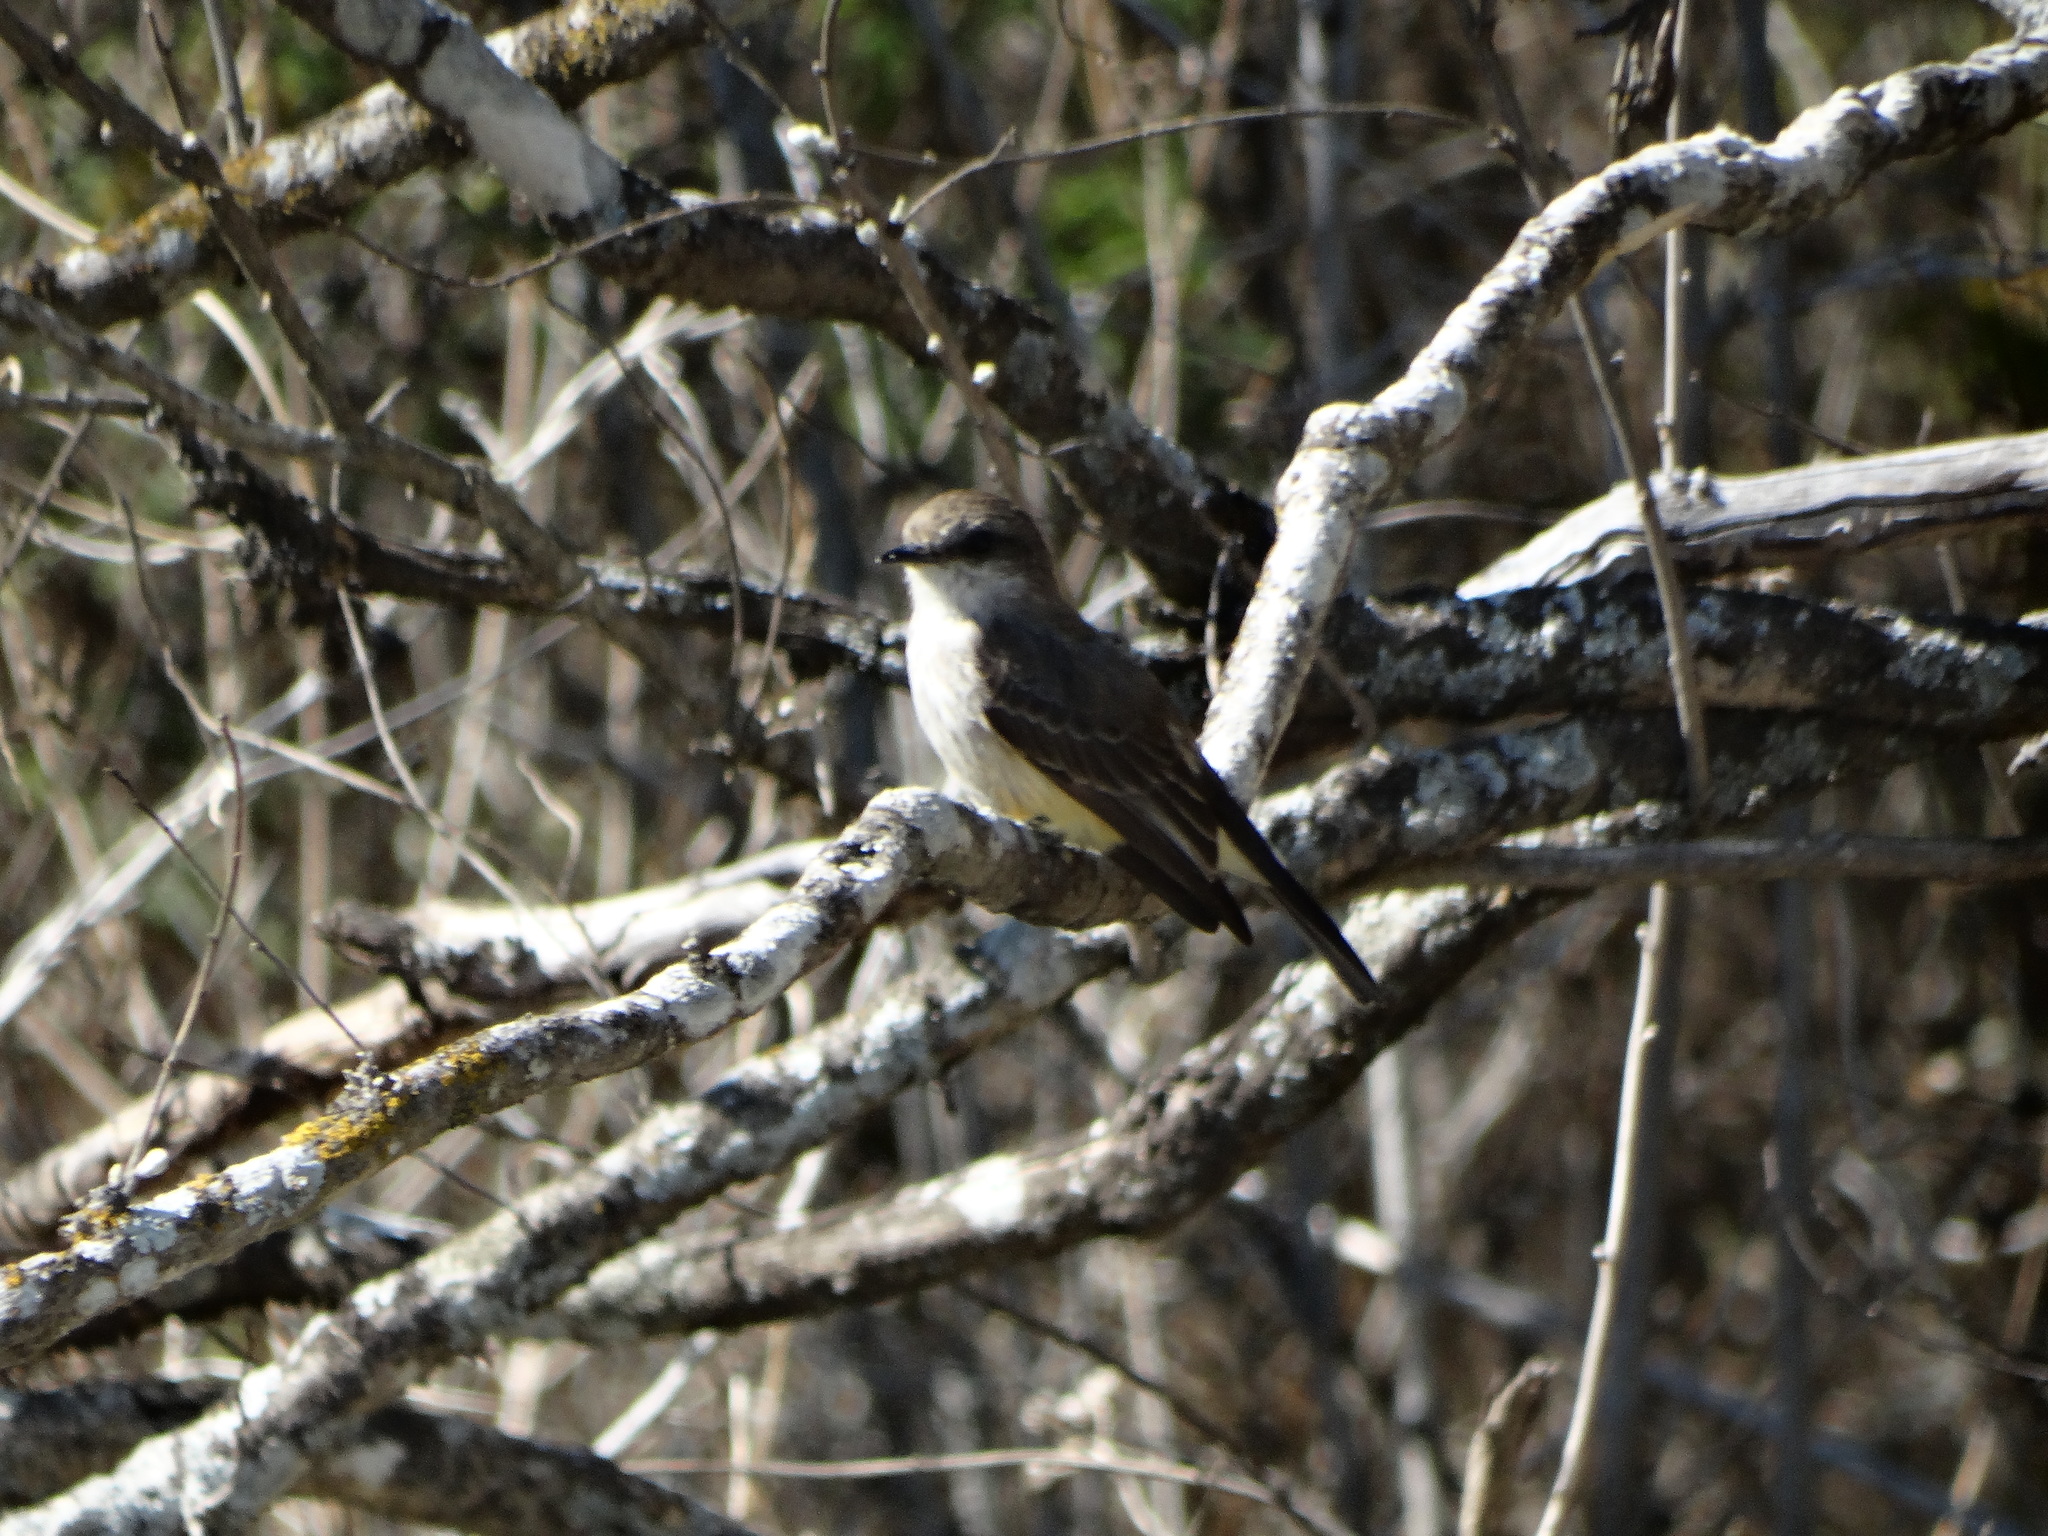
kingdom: Animalia
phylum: Chordata
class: Aves
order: Passeriformes
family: Tyrannidae
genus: Pyrocephalus
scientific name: Pyrocephalus rubinus
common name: Vermilion flycatcher
